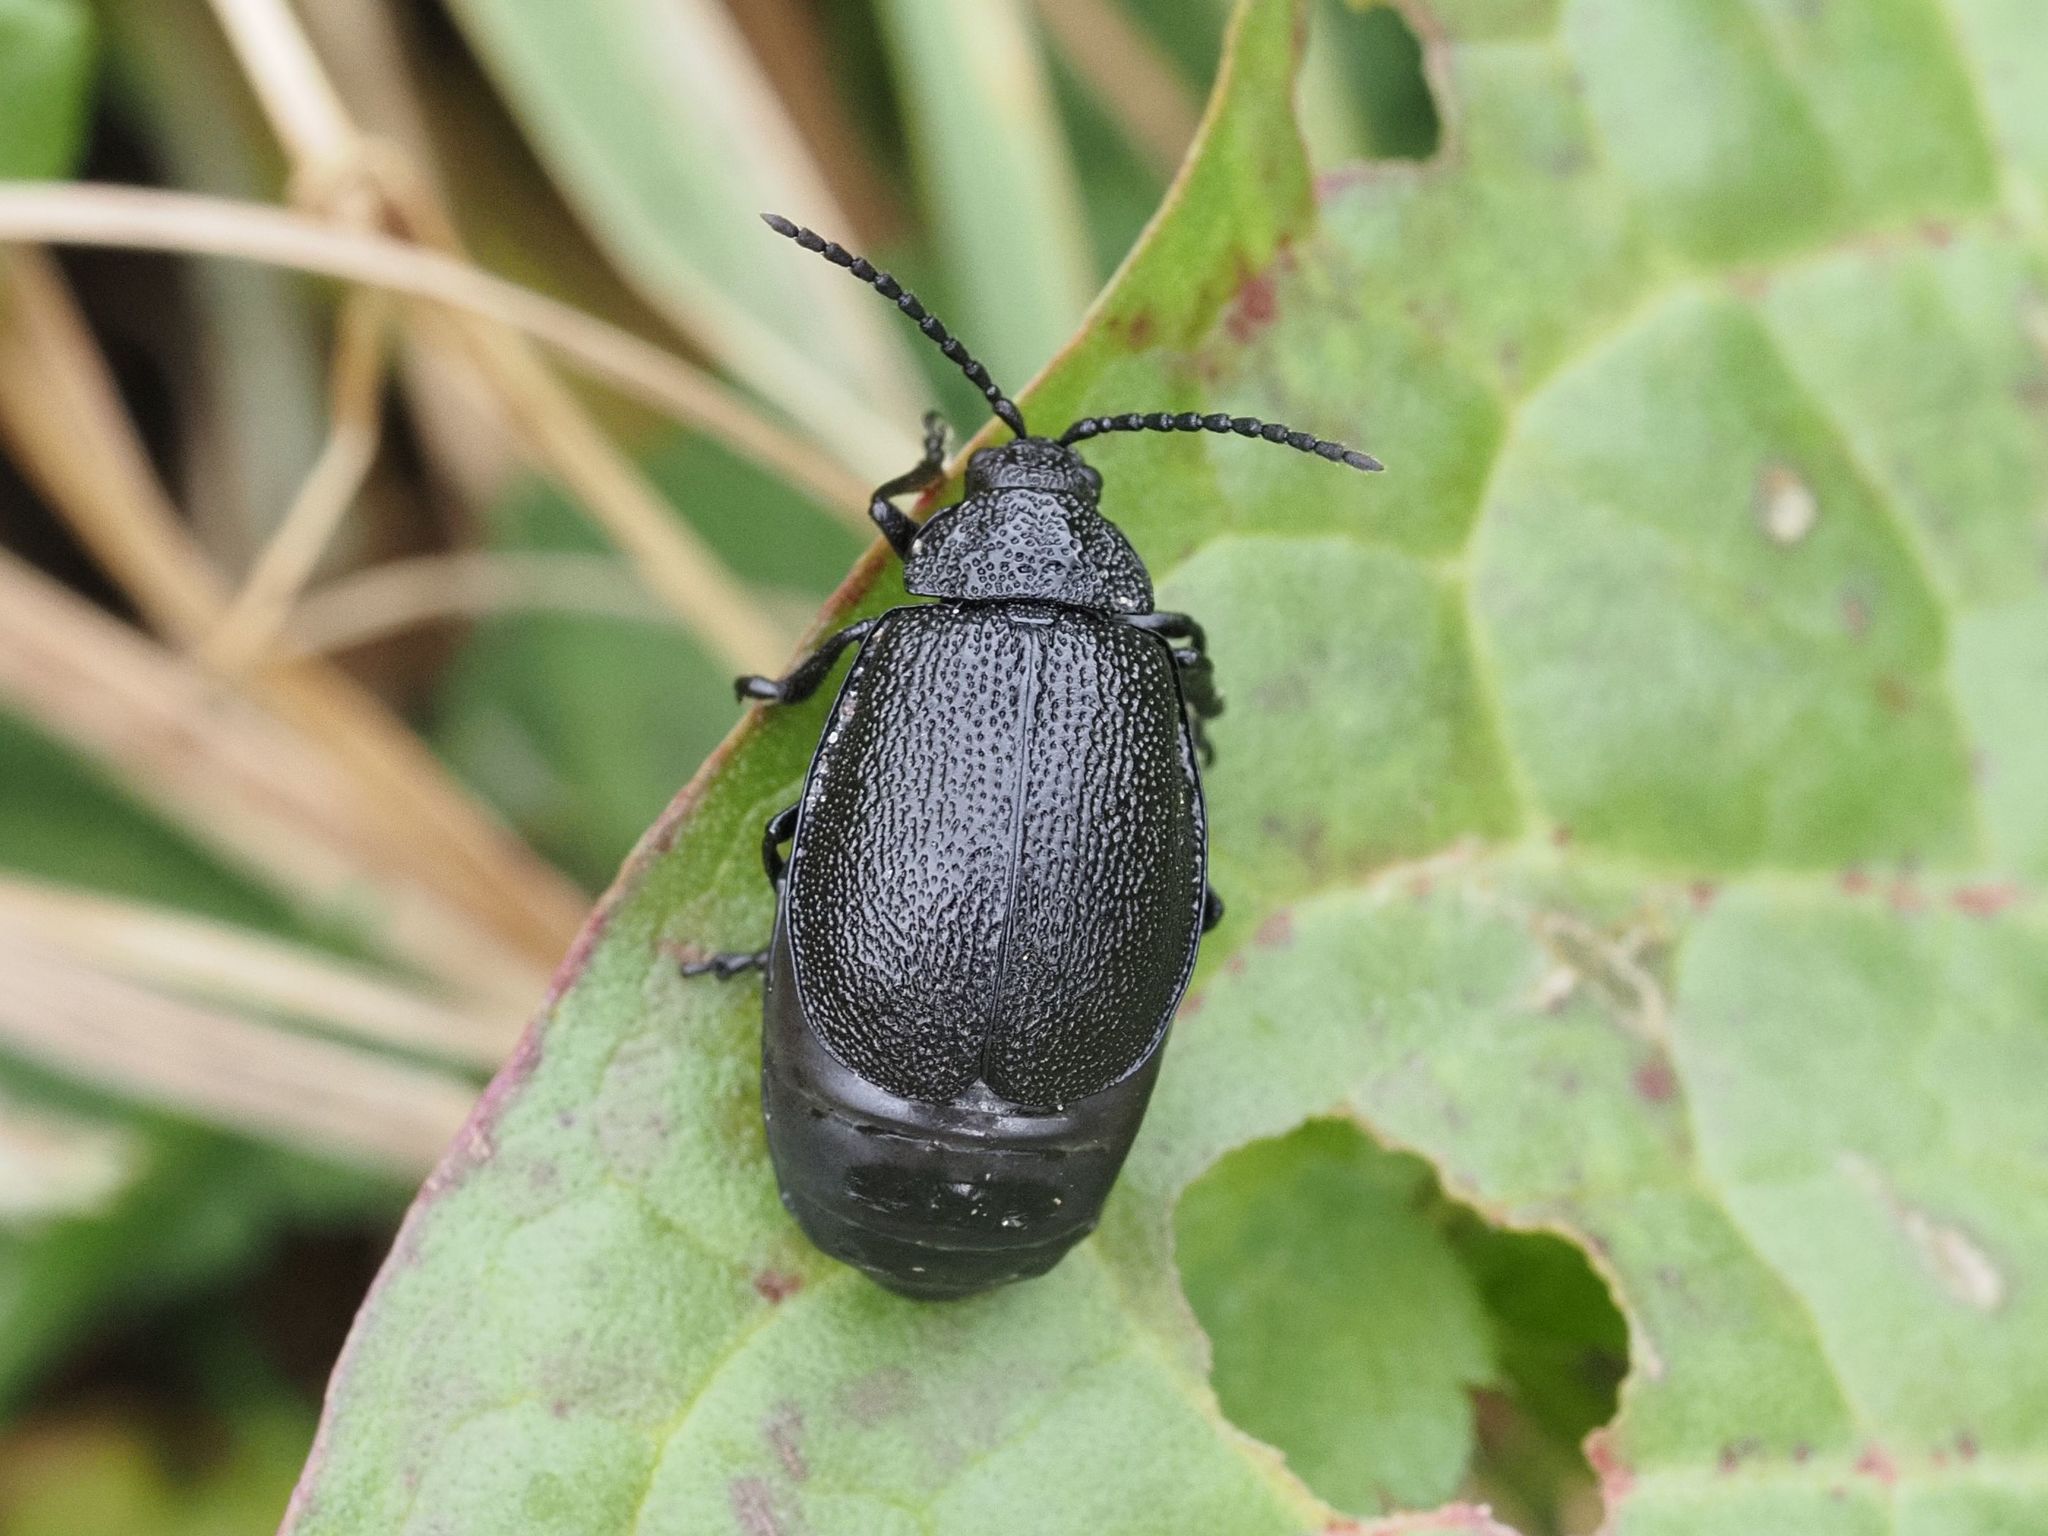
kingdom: Animalia
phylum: Arthropoda
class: Insecta
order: Coleoptera
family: Chrysomelidae
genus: Galeruca
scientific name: Galeruca tanaceti
